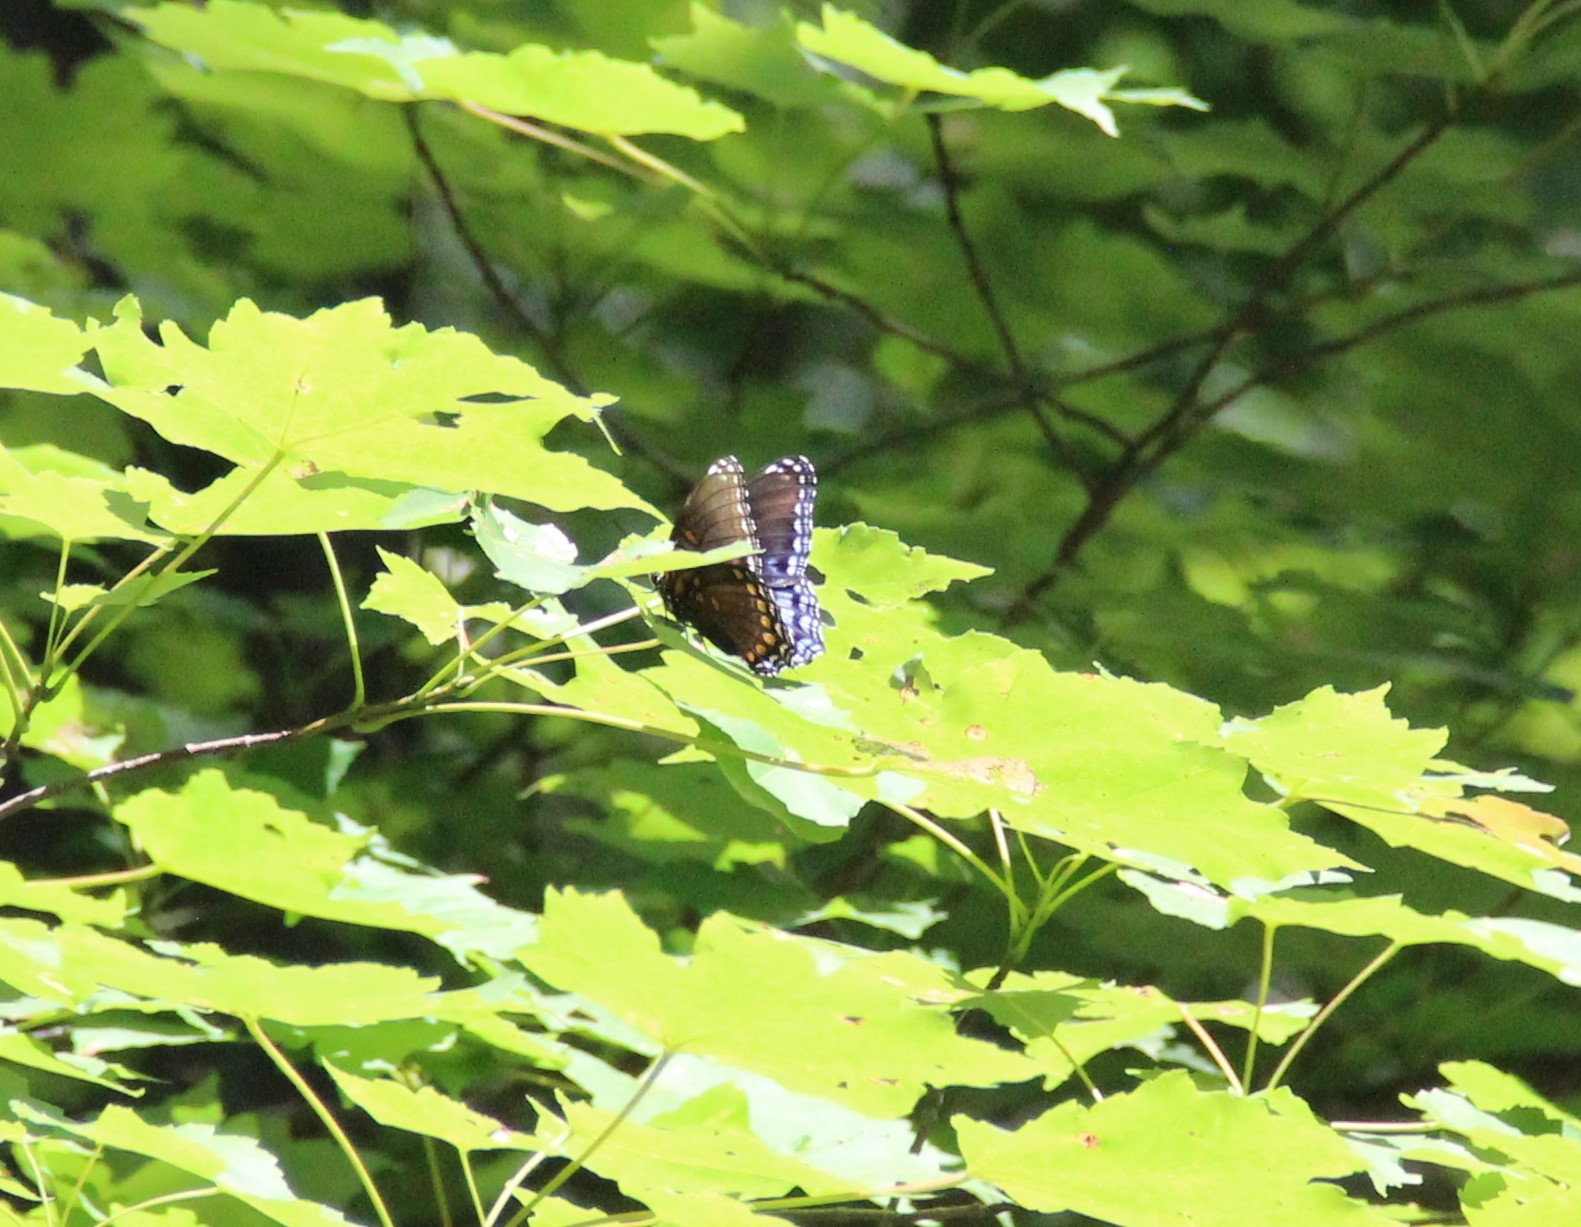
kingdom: Animalia
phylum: Arthropoda
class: Insecta
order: Lepidoptera
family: Nymphalidae
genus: Limenitis
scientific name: Limenitis astyanax
